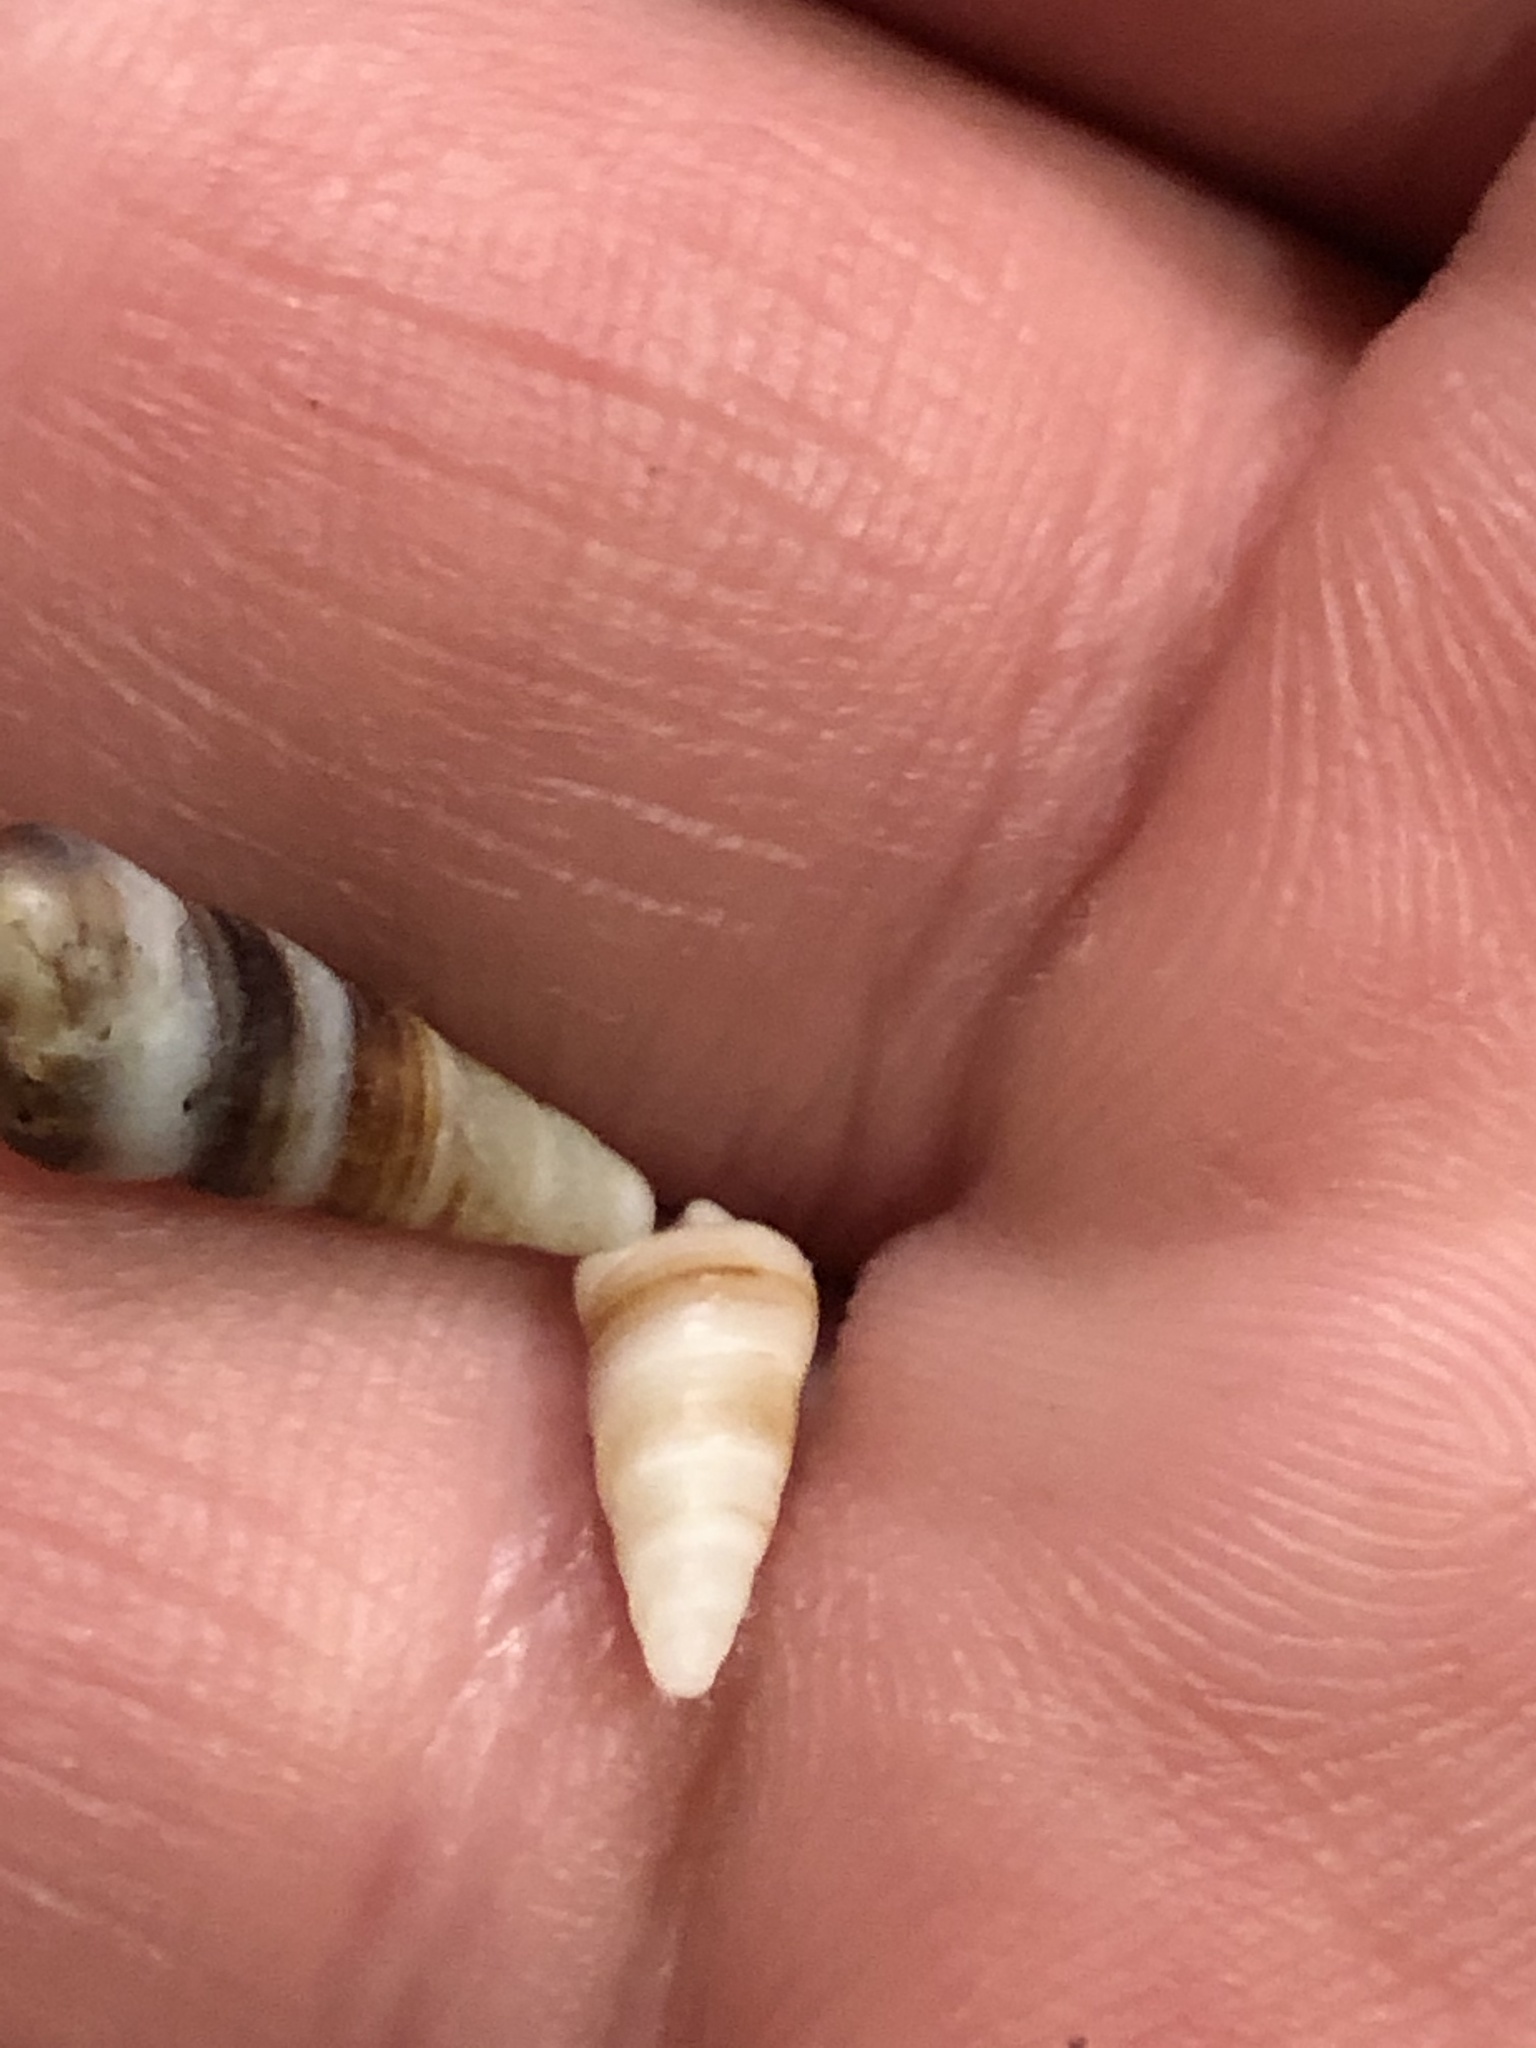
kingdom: Animalia
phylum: Mollusca
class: Gastropoda
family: Cerithiidae
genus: Neostylidium
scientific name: Neostylidium eschrichtii
